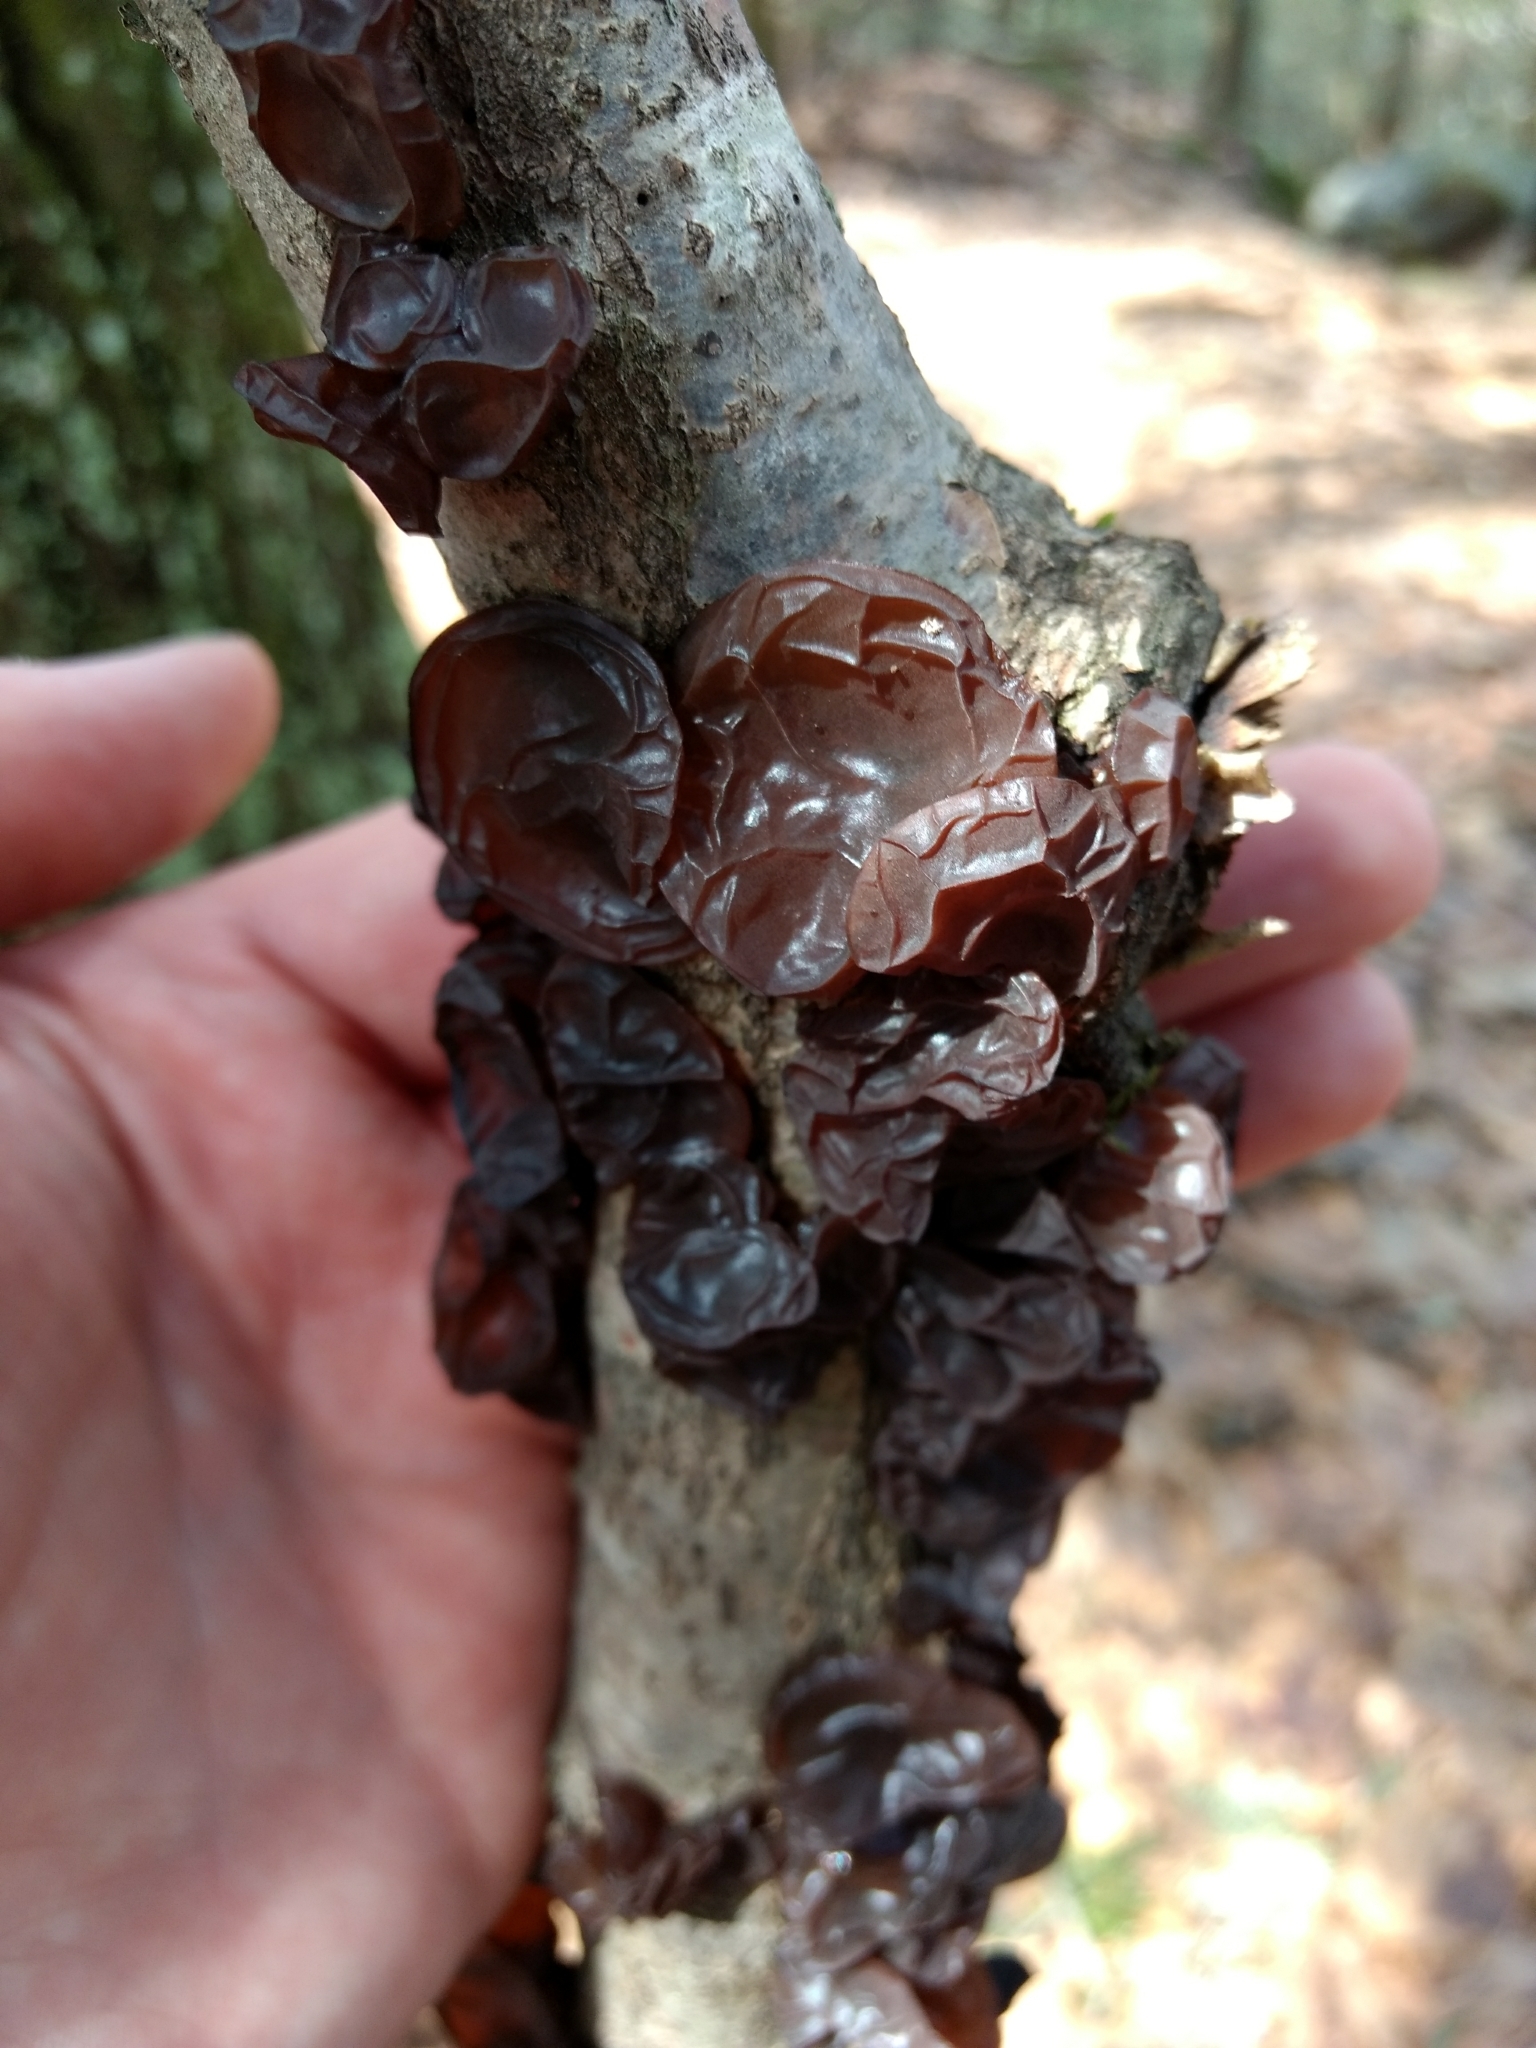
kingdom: Fungi
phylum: Basidiomycota
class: Agaricomycetes
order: Auriculariales
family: Auriculariaceae
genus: Exidia
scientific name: Exidia
